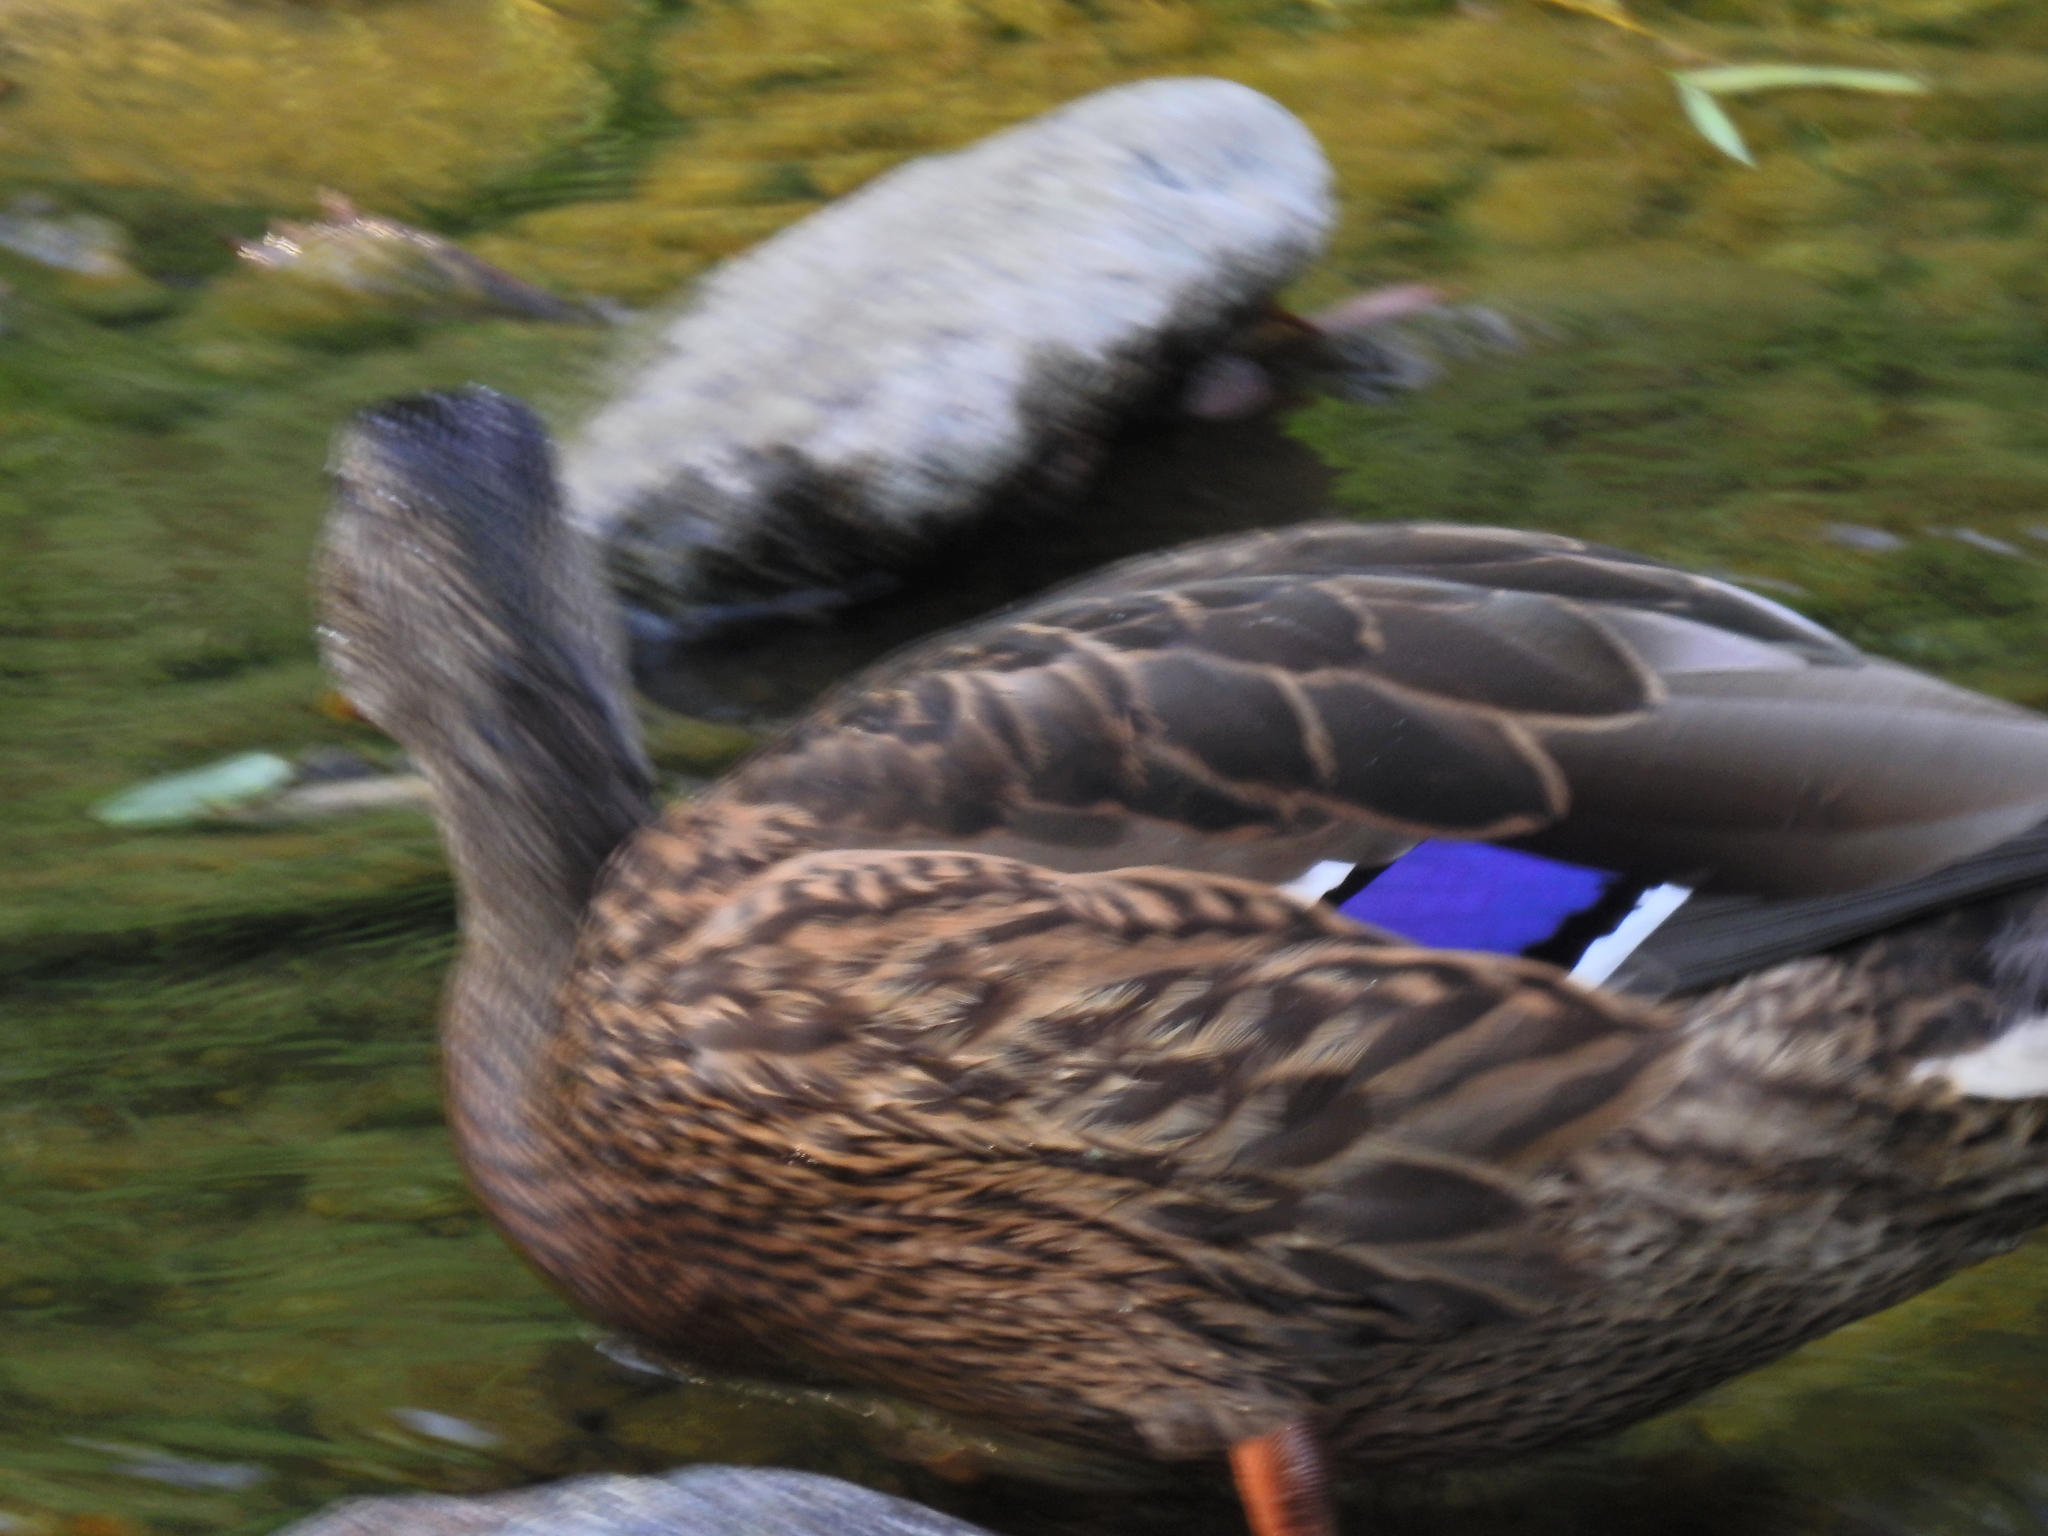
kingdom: Animalia
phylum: Chordata
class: Aves
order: Anseriformes
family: Anatidae
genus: Anas
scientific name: Anas platyrhynchos
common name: Mallard
